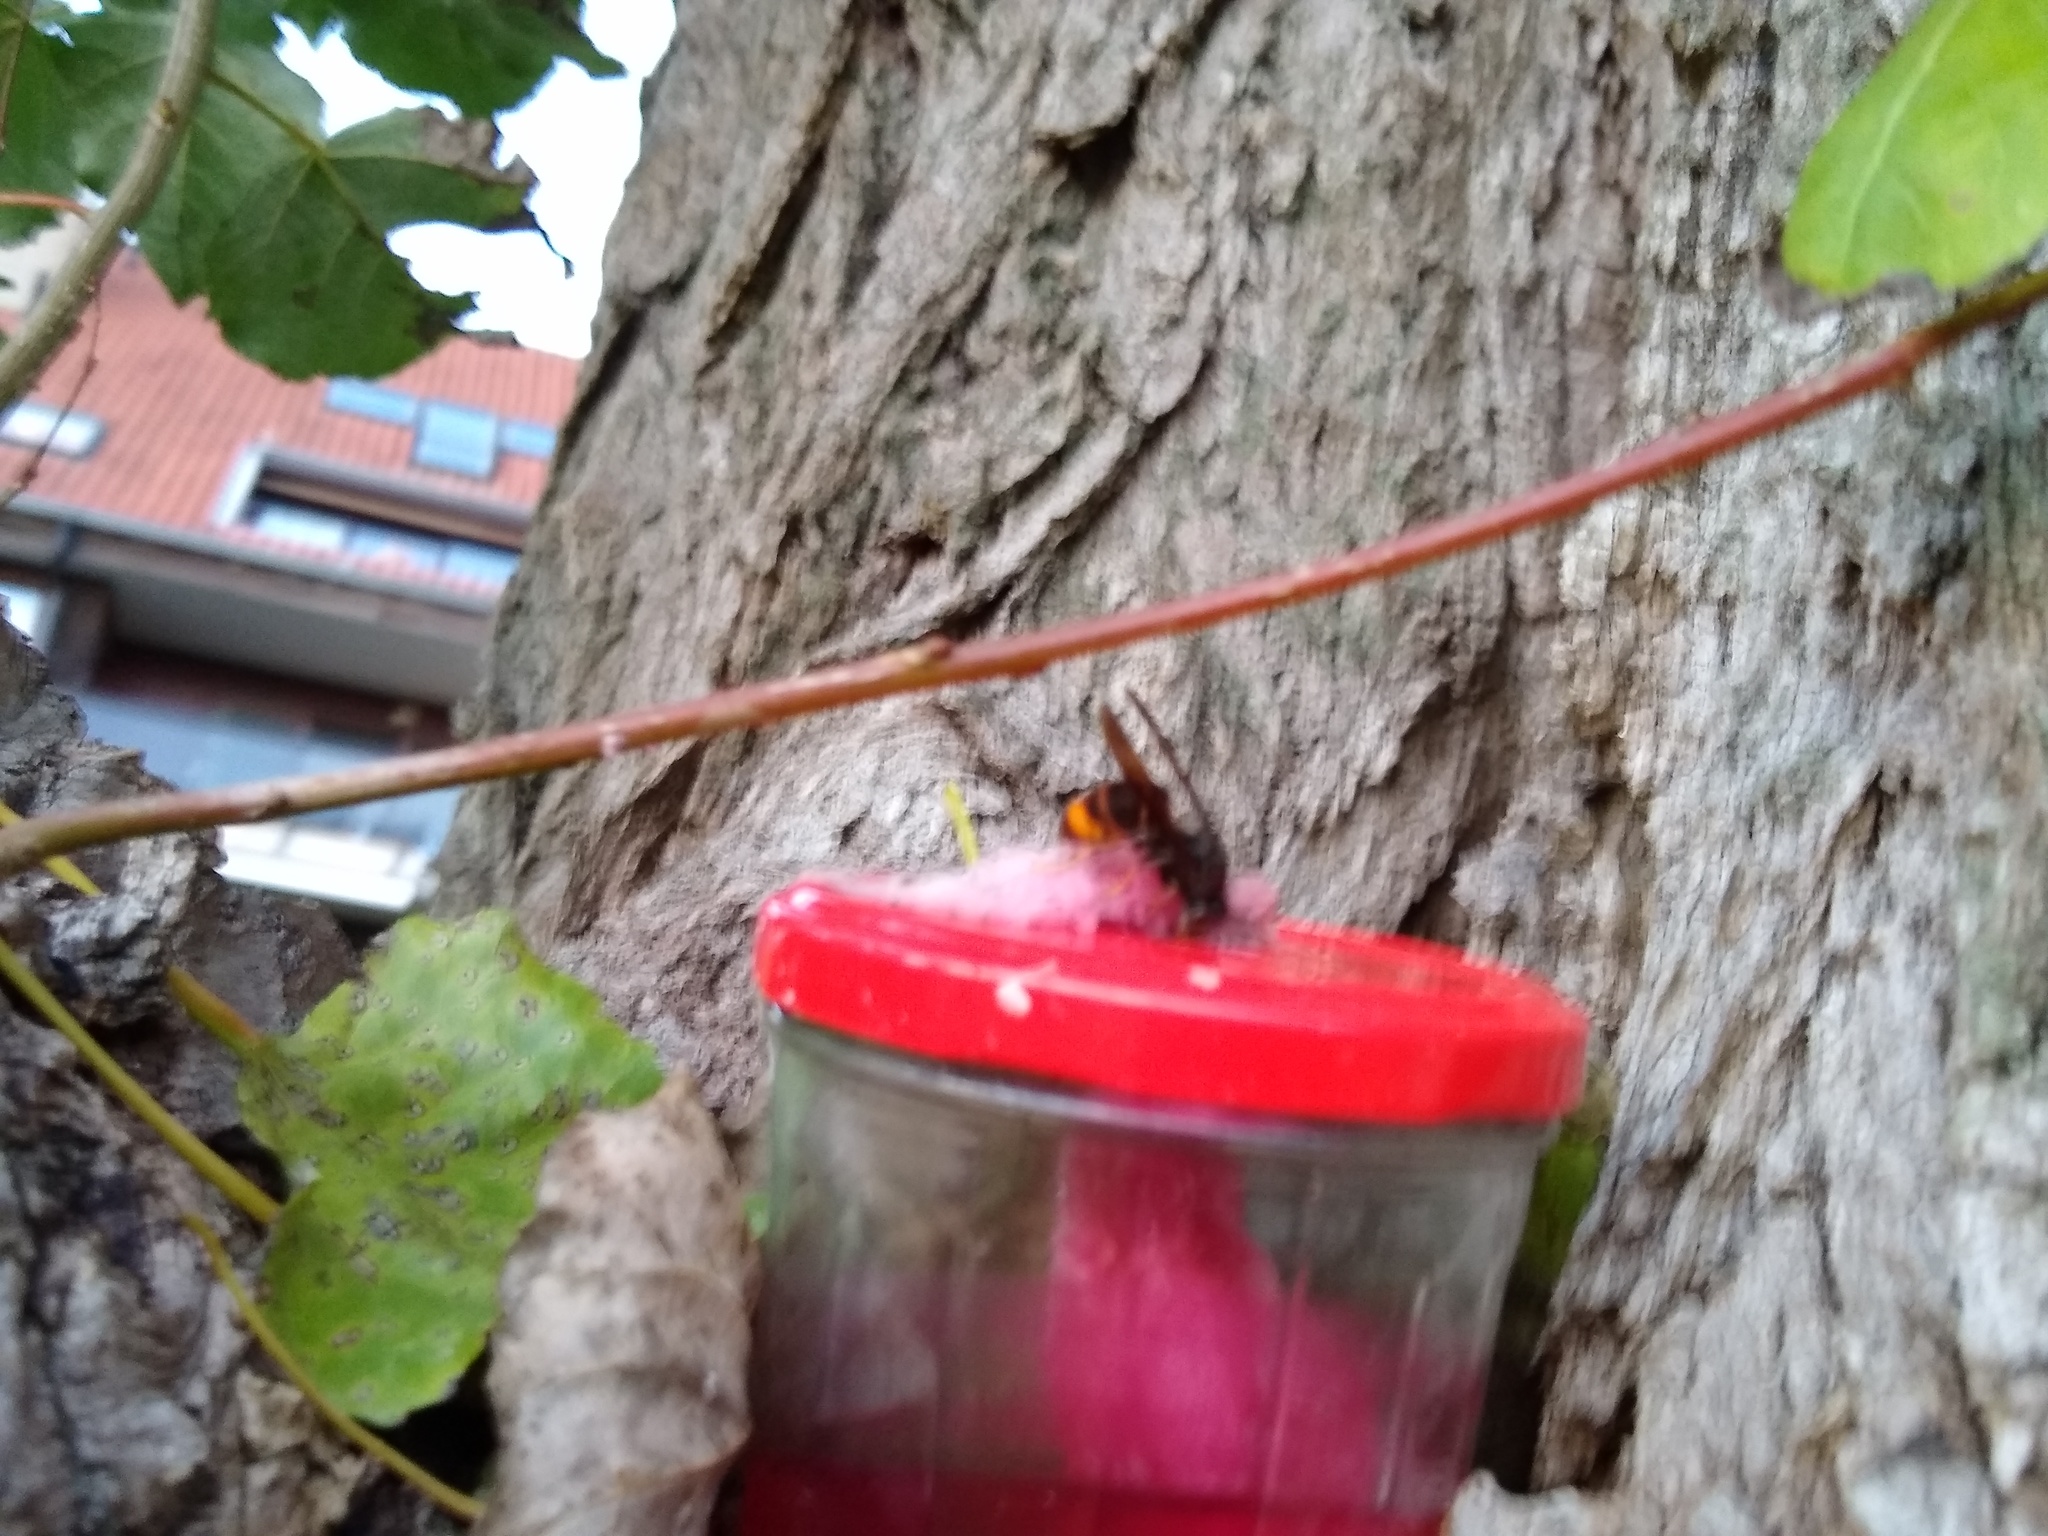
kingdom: Animalia
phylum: Arthropoda
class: Insecta
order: Hymenoptera
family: Vespidae
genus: Vespa
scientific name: Vespa velutina
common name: Asian hornet
